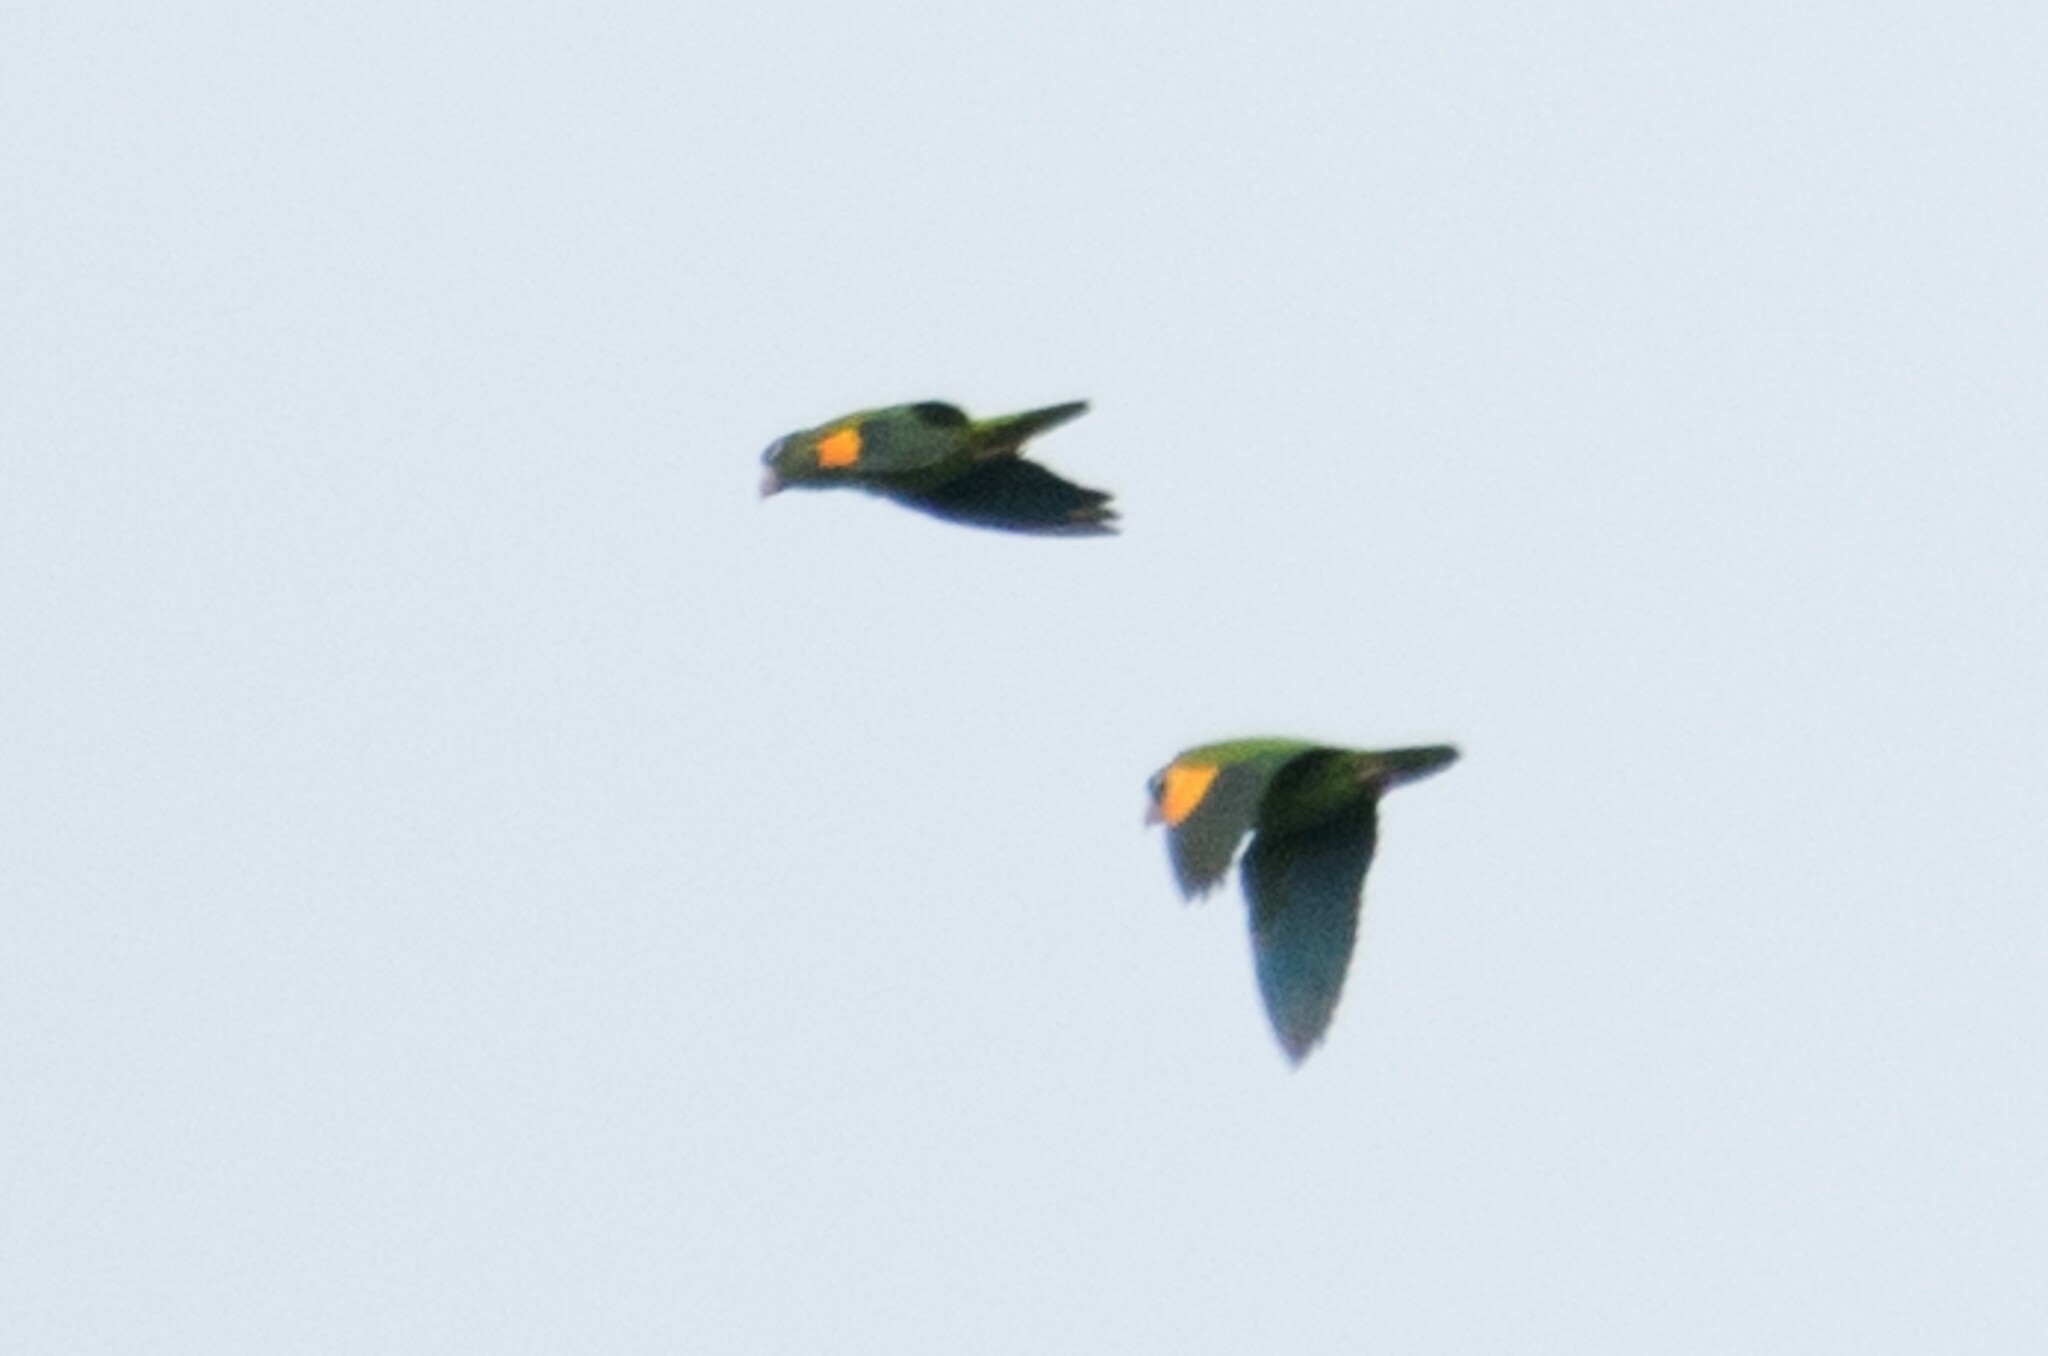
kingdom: Animalia
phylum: Chordata
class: Aves
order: Psittaciformes
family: Psittacidae
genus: Brotogeris
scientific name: Brotogeris chrysoptera
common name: Golden-winged parakeet
